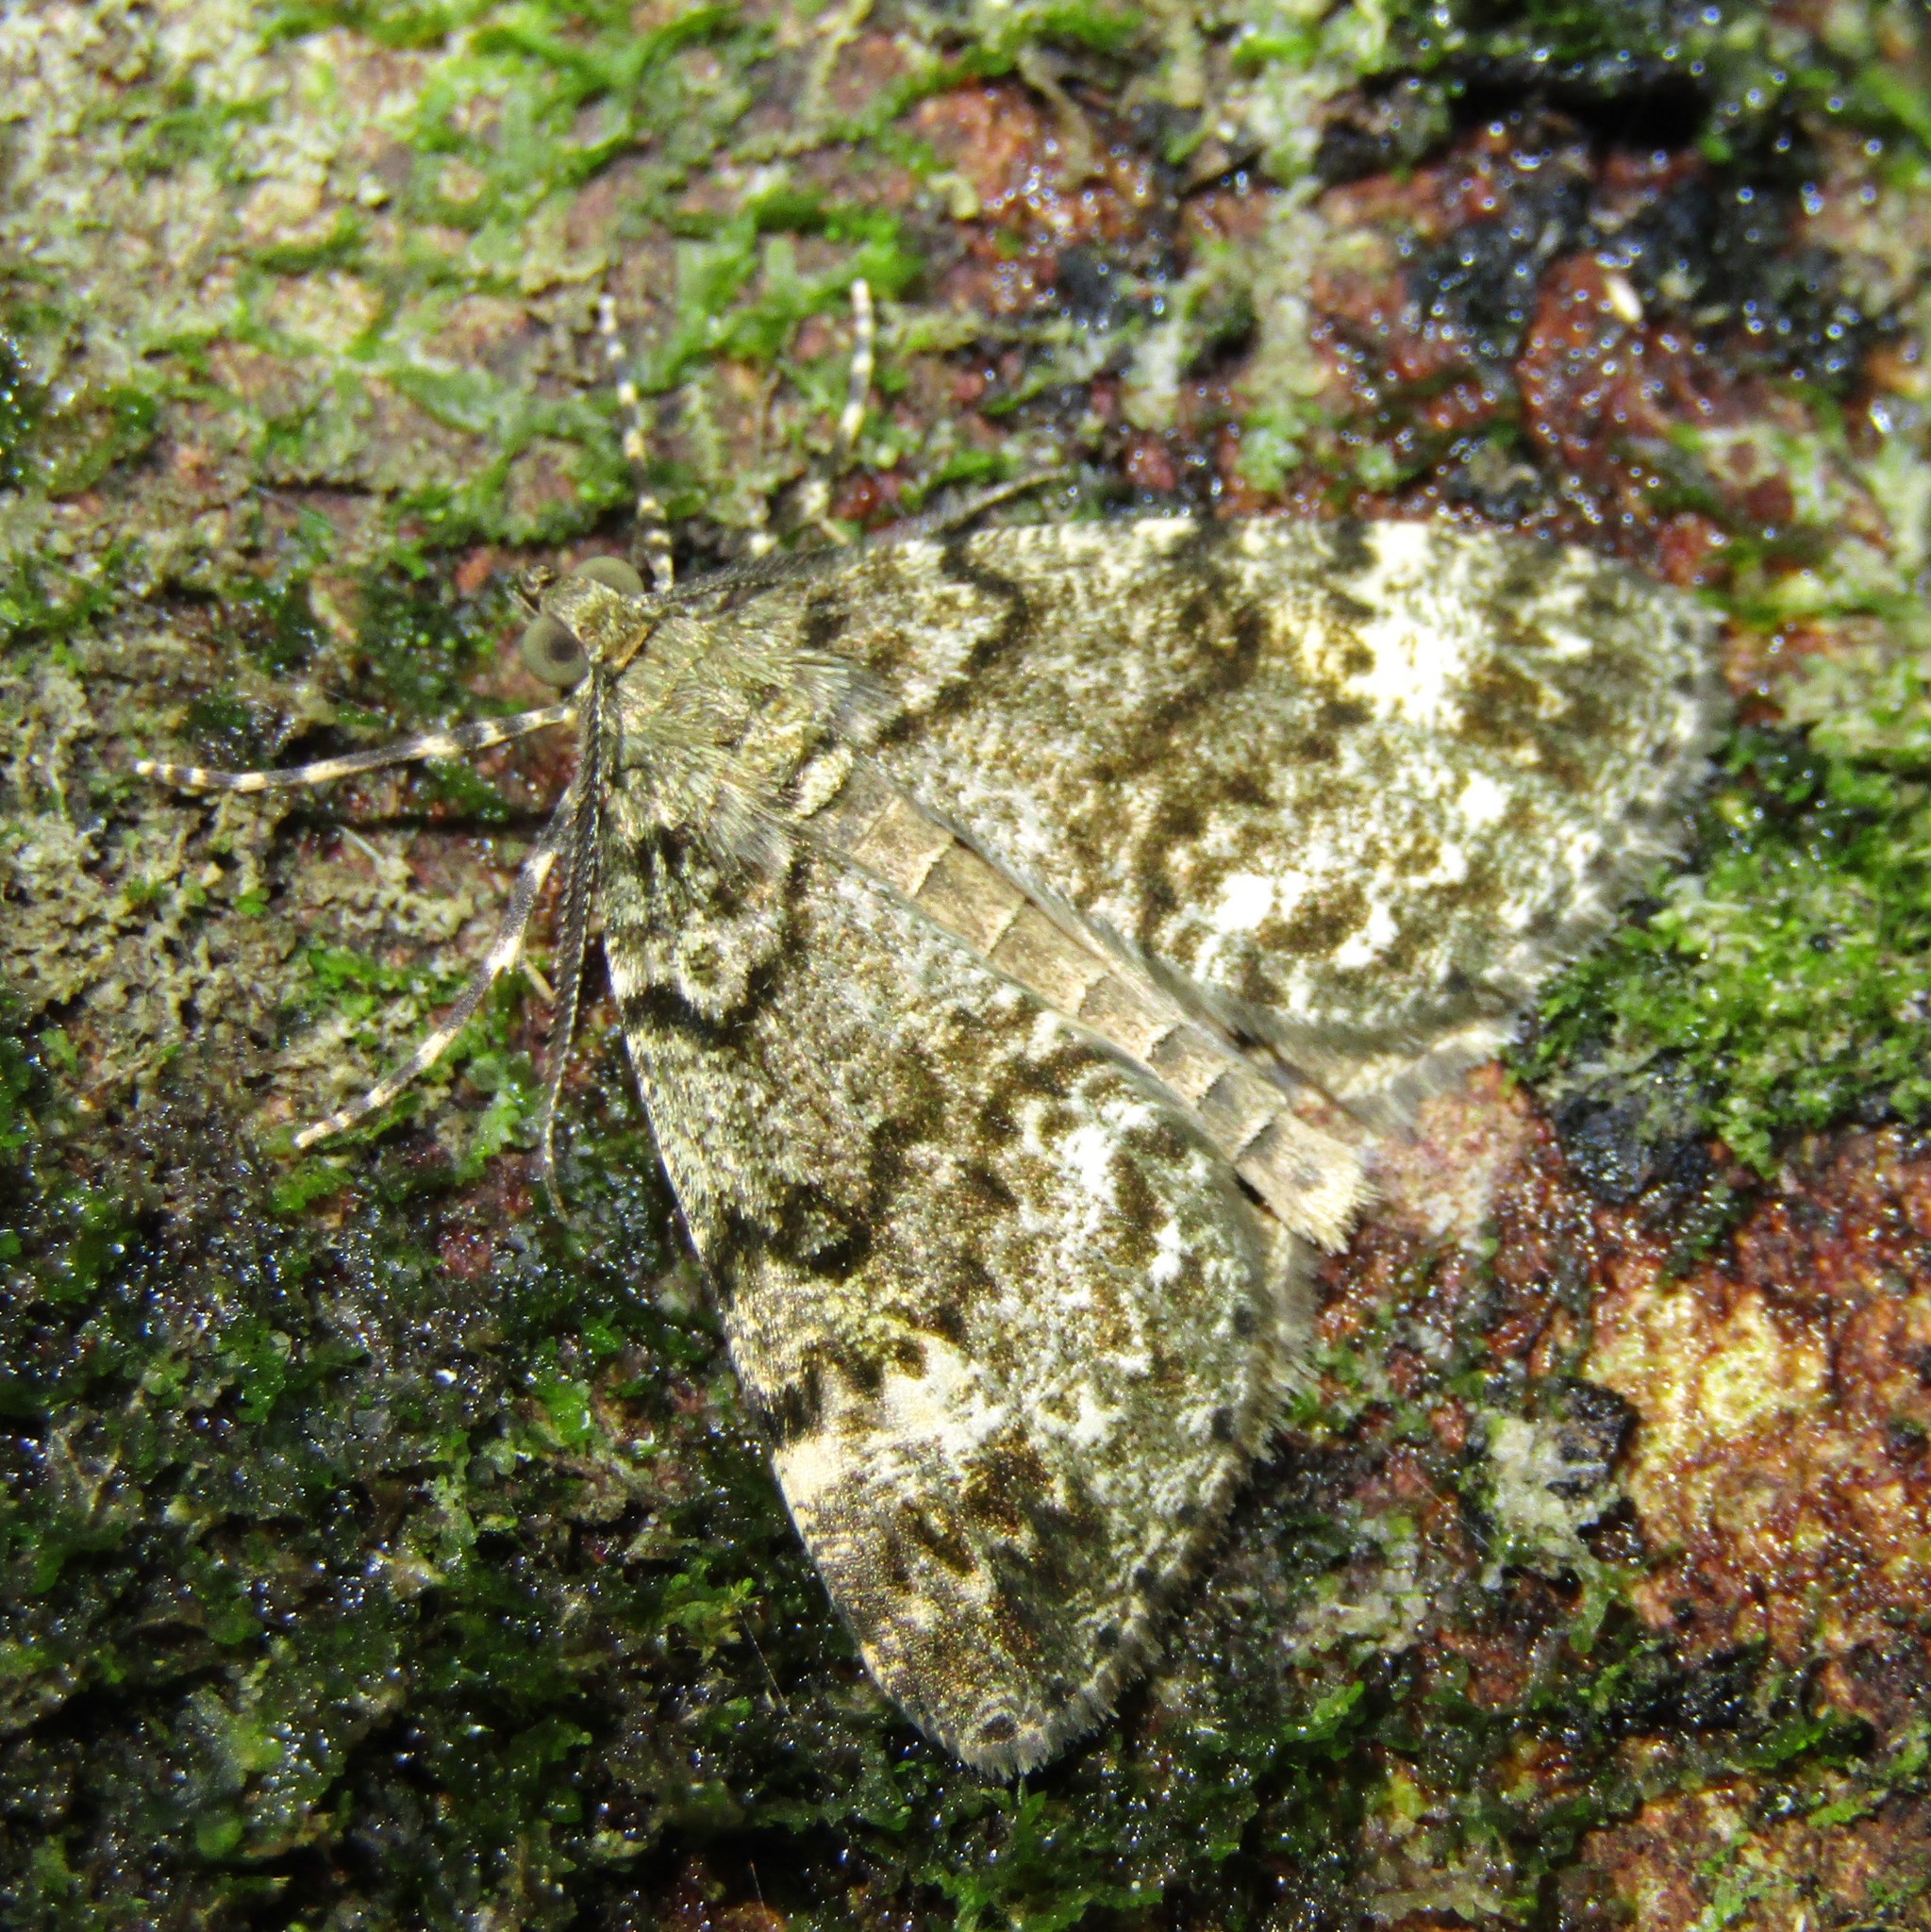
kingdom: Animalia
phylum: Arthropoda
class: Insecta
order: Lepidoptera
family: Geometridae
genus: Pseudocoremia
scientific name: Pseudocoremia indistincta
